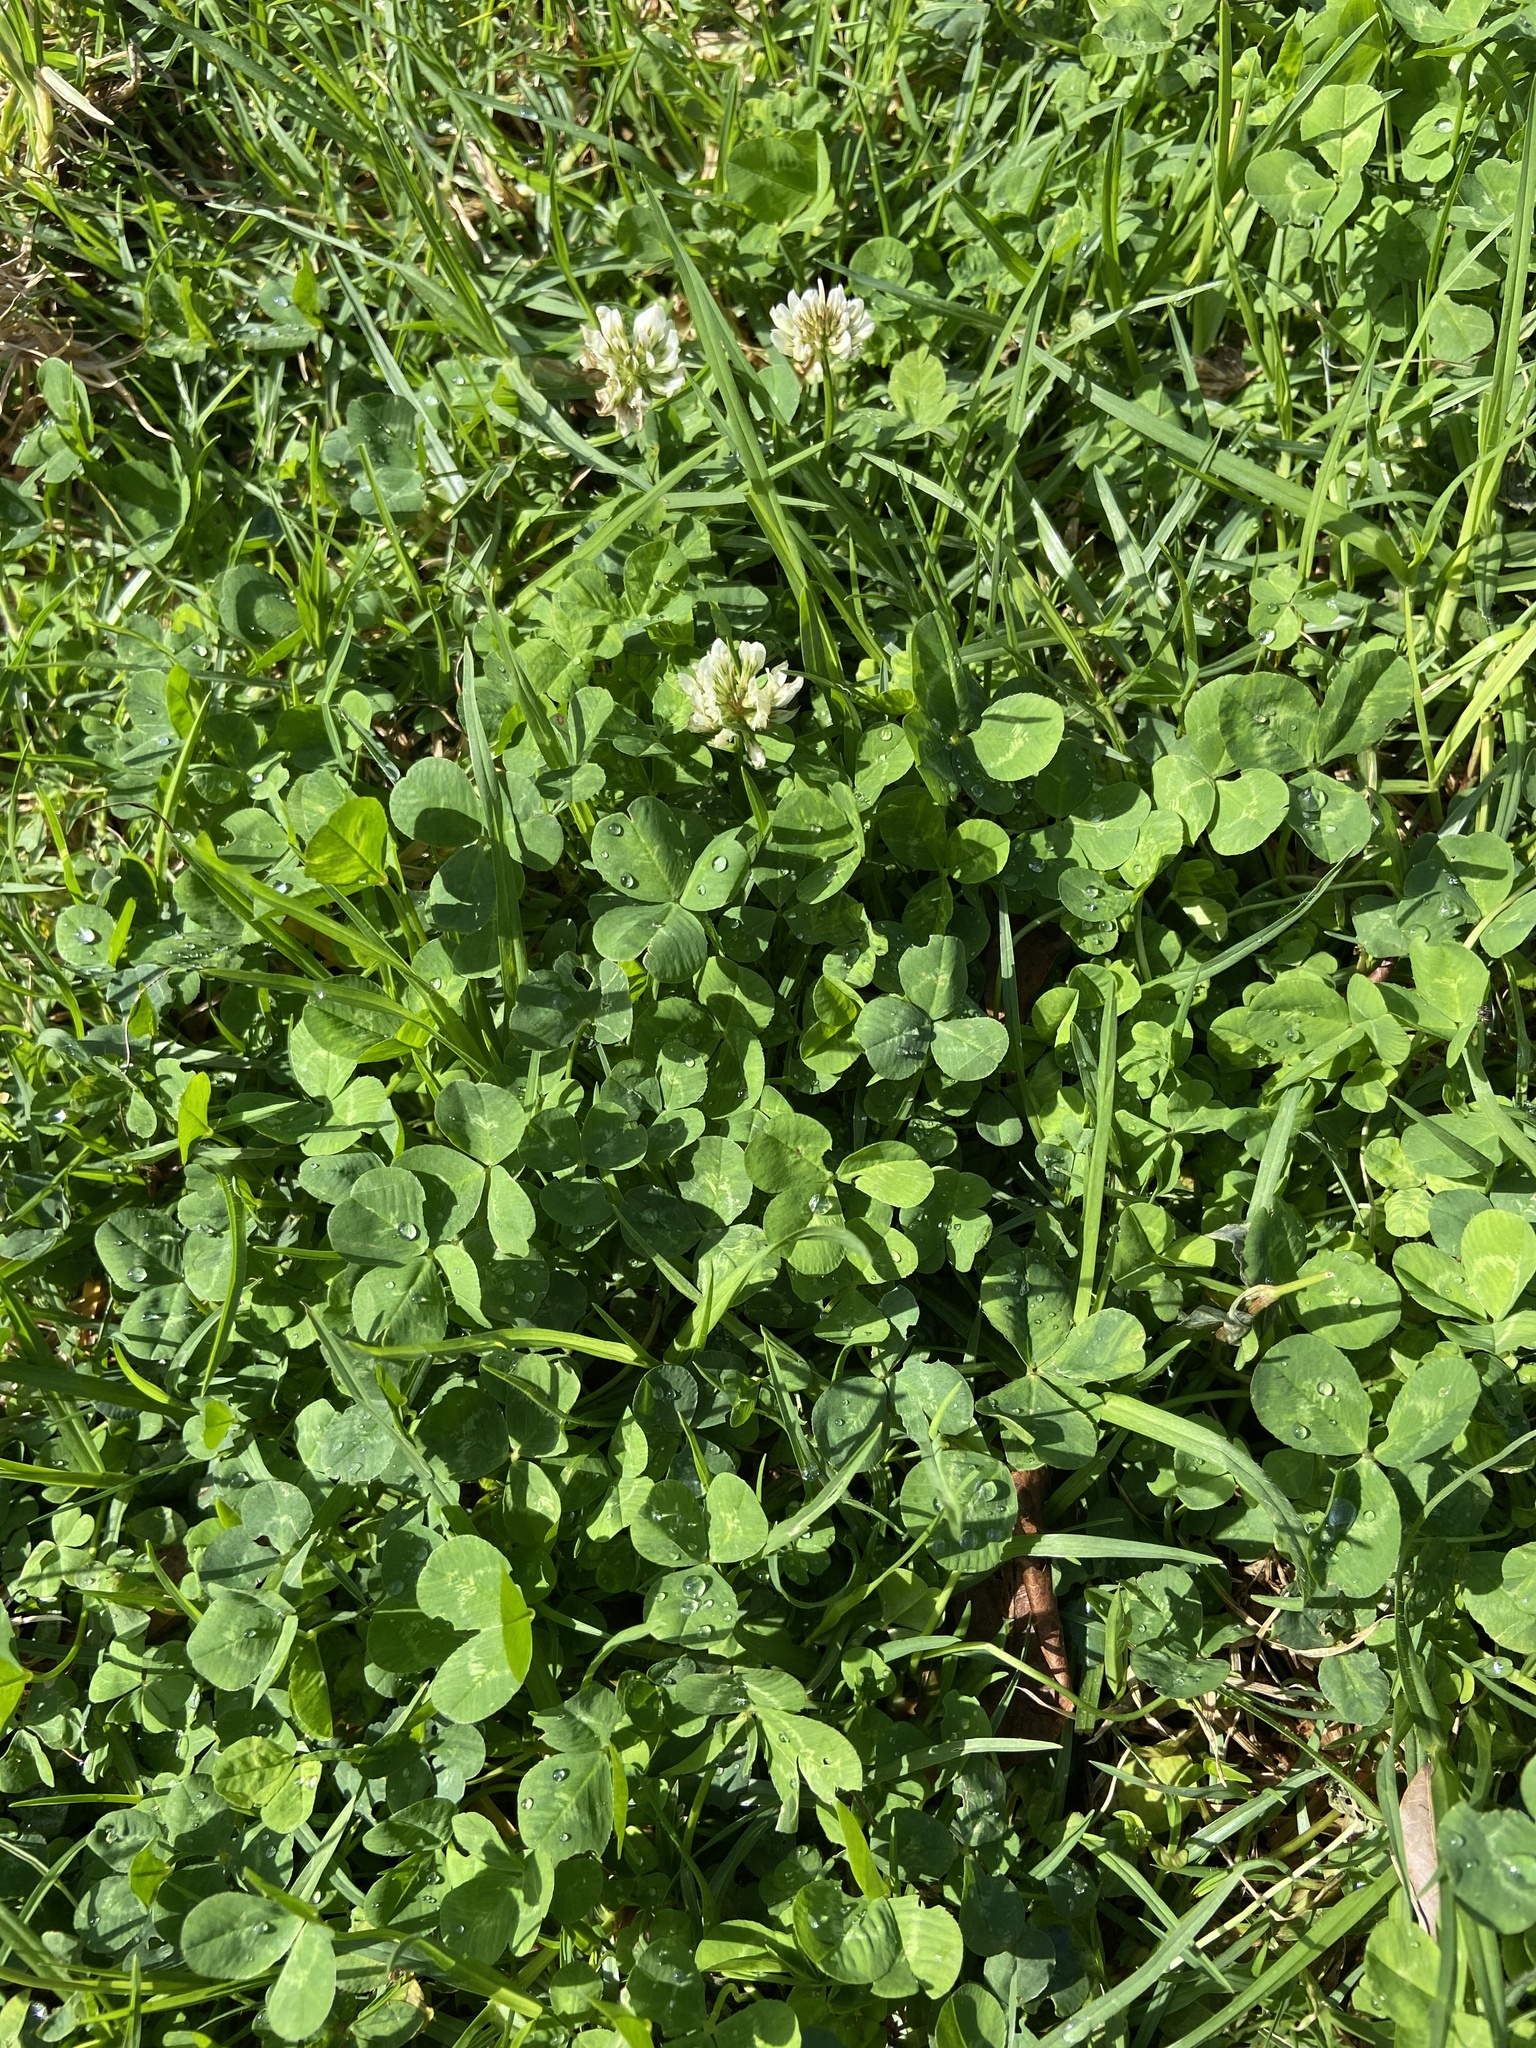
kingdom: Plantae
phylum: Tracheophyta
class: Magnoliopsida
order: Fabales
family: Fabaceae
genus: Trifolium
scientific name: Trifolium repens
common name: White clover
